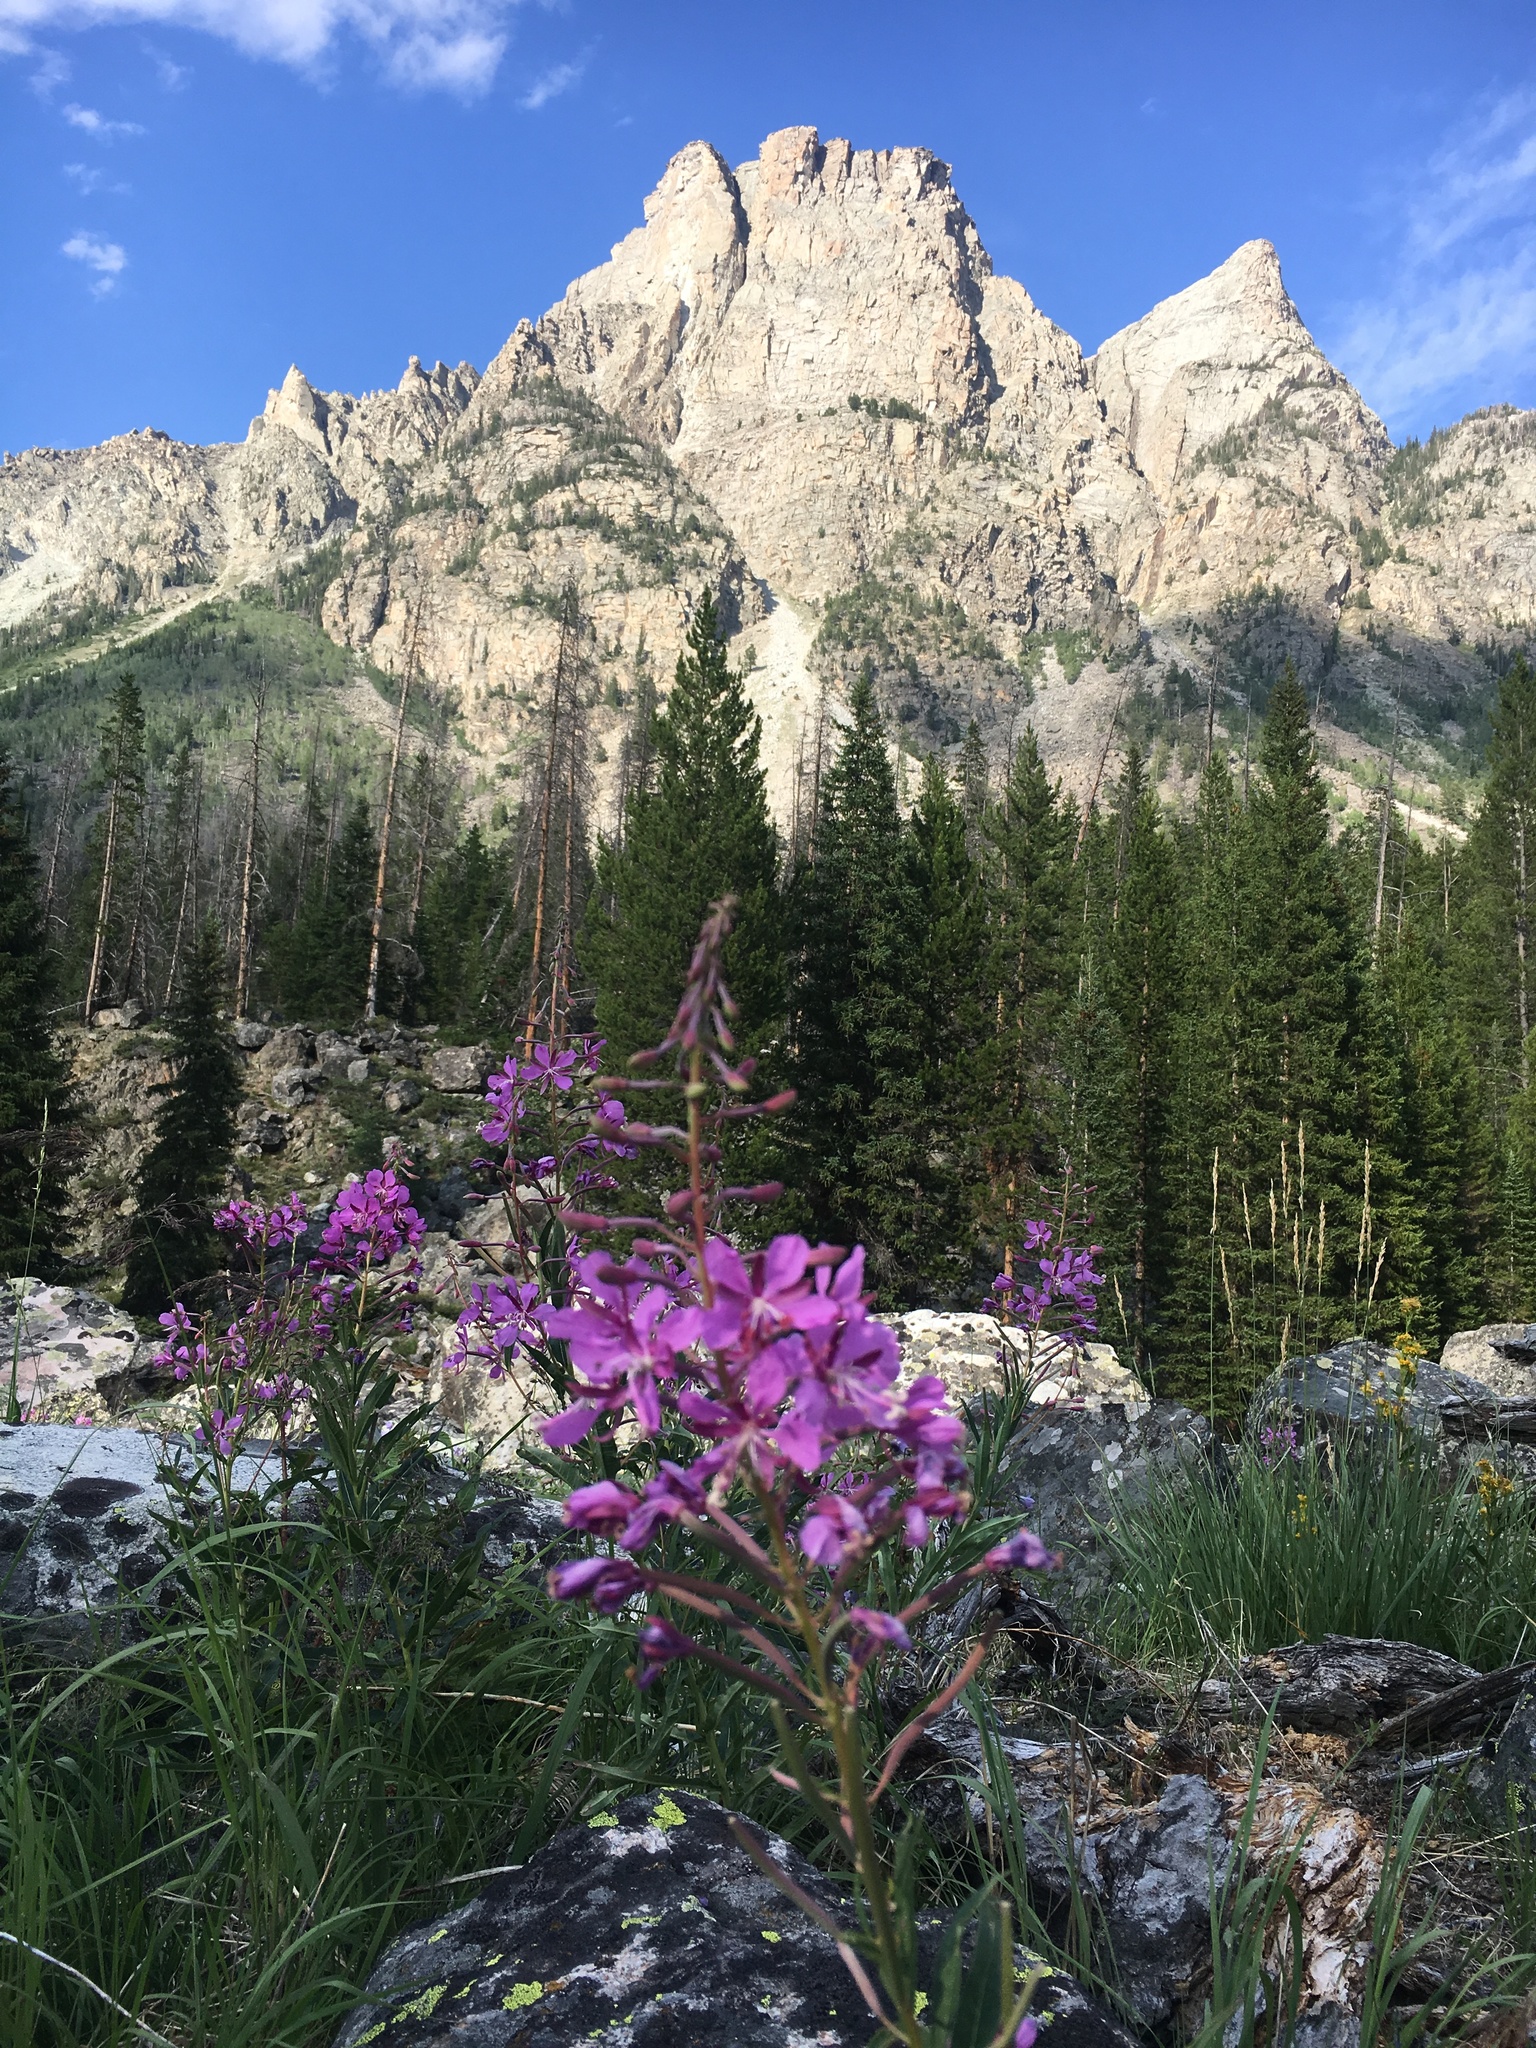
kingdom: Plantae
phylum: Tracheophyta
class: Magnoliopsida
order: Myrtales
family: Onagraceae
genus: Chamaenerion
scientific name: Chamaenerion angustifolium
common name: Fireweed
